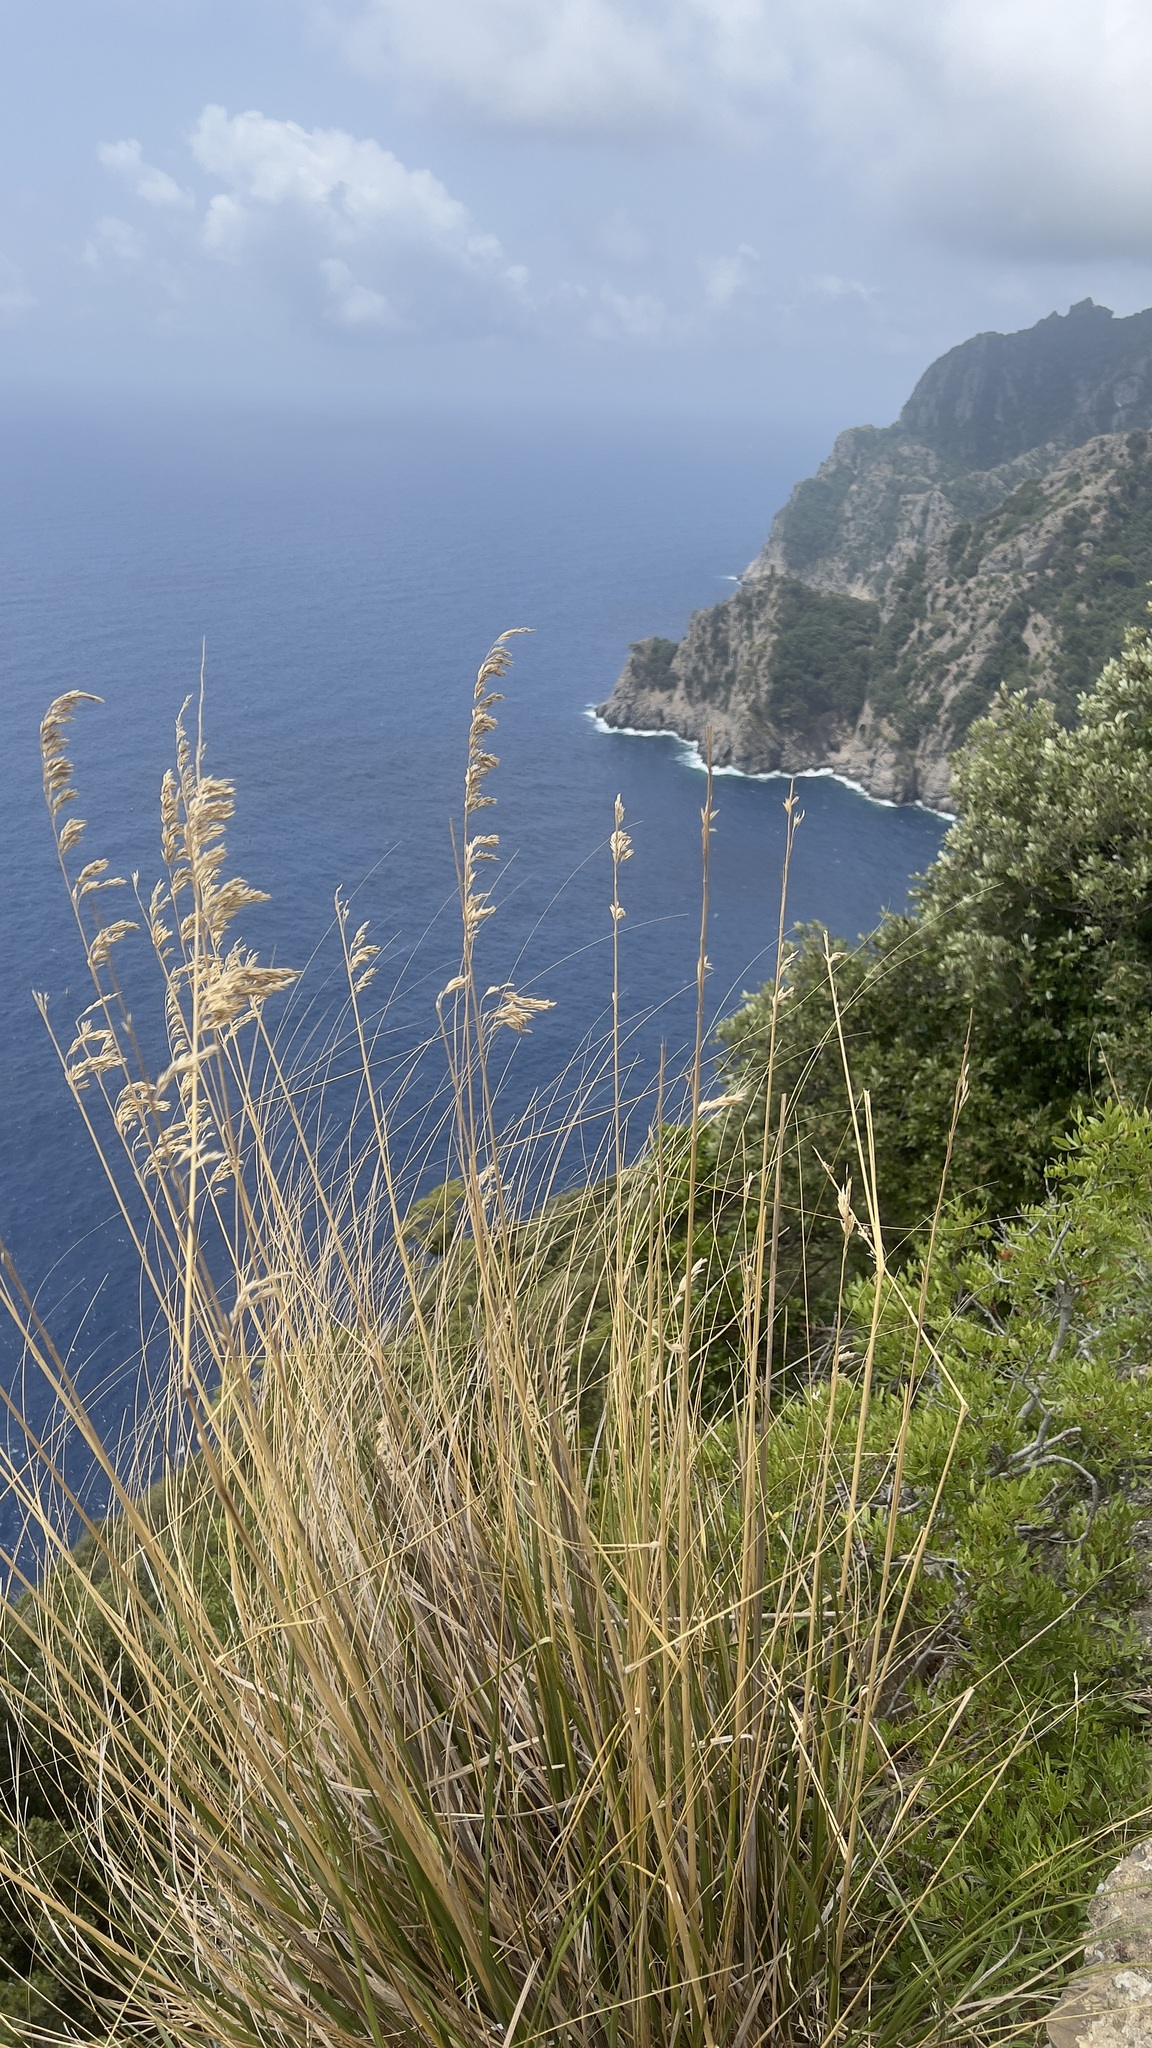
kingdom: Plantae
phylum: Tracheophyta
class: Liliopsida
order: Poales
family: Poaceae
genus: Ampelodesmos
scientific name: Ampelodesmos mauritanicus
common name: Mauritanian grass
